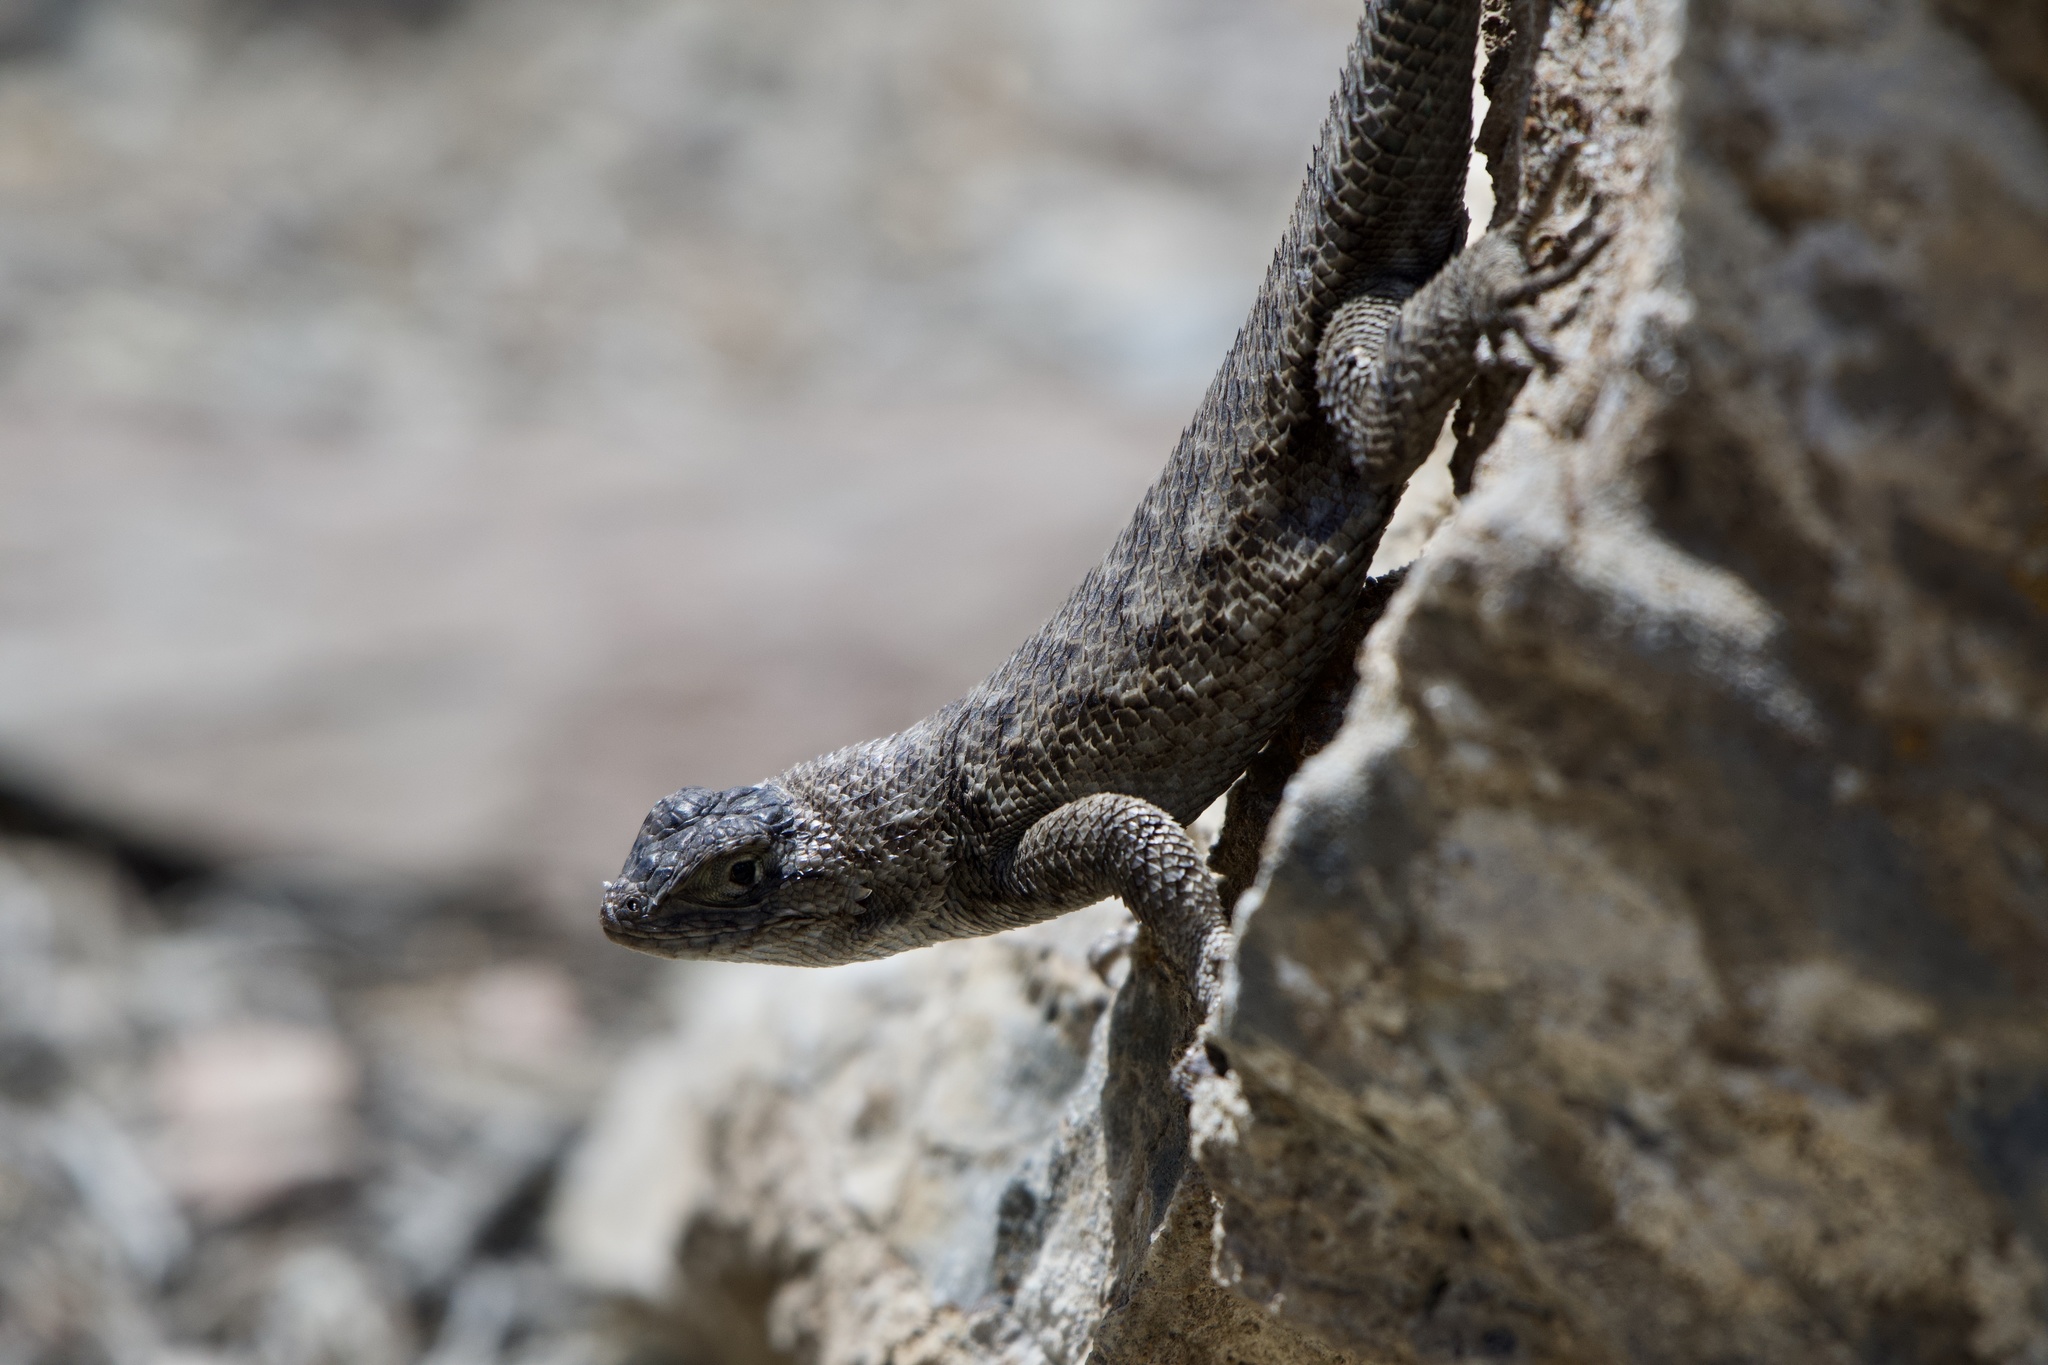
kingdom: Animalia
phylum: Chordata
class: Squamata
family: Phrynosomatidae
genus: Sceloporus
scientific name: Sceloporus occidentalis
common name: Western fence lizard
